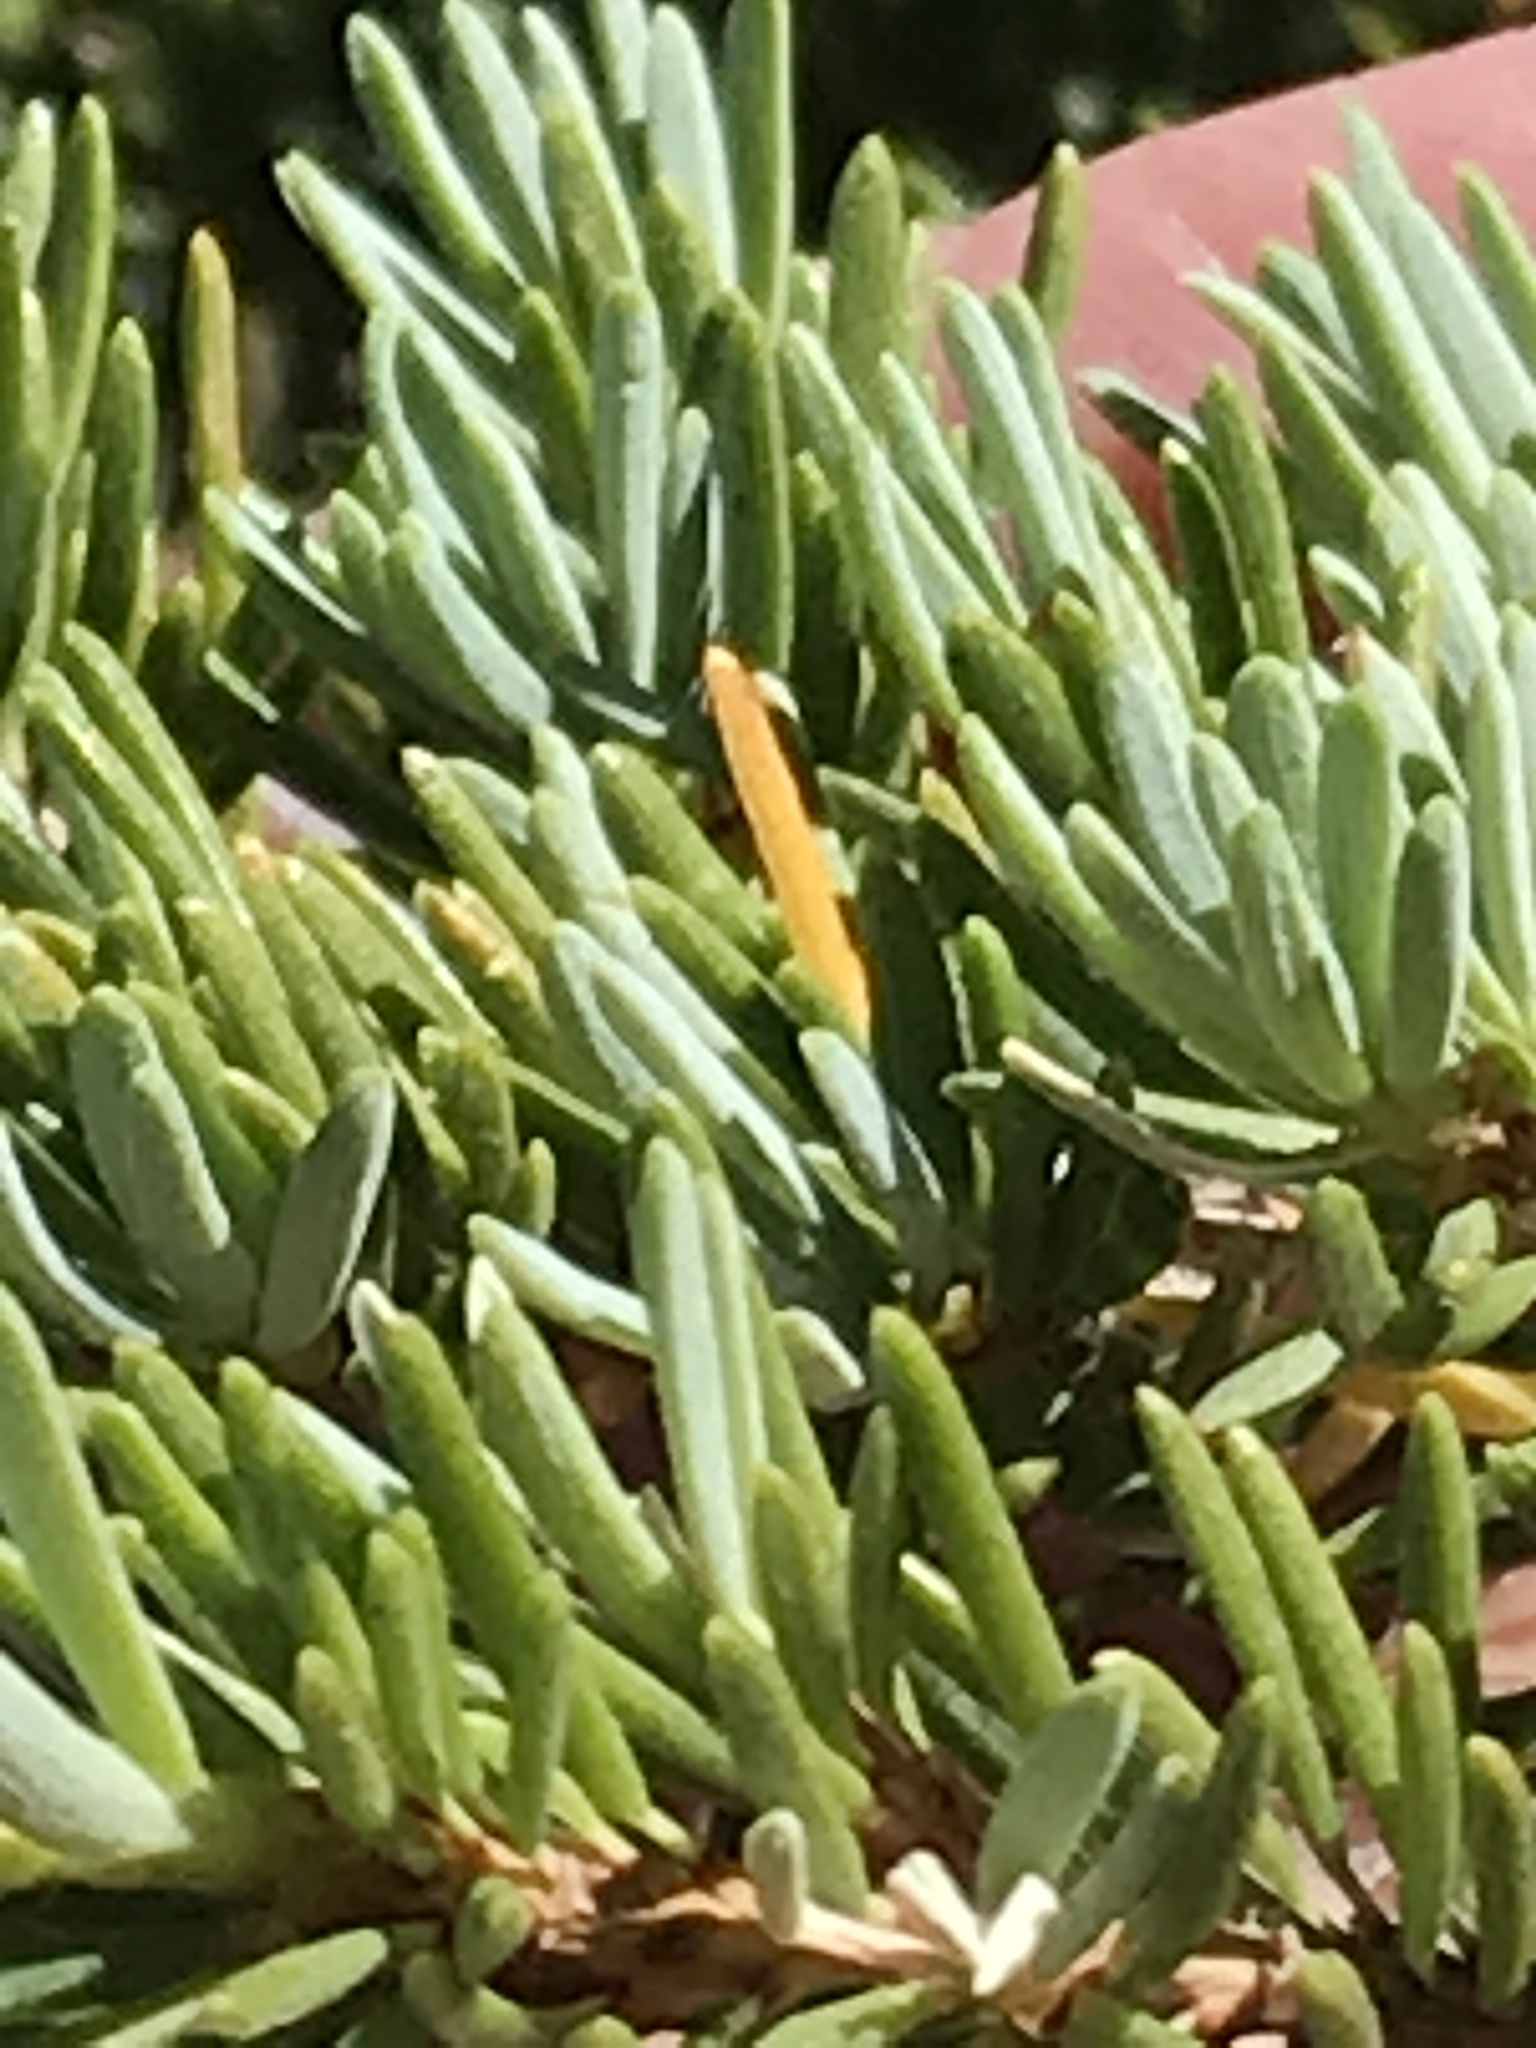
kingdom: Plantae
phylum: Tracheophyta
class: Pinopsida
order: Pinales
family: Pinaceae
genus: Tsuga
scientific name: Tsuga mertensiana
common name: Mountain hemlock
